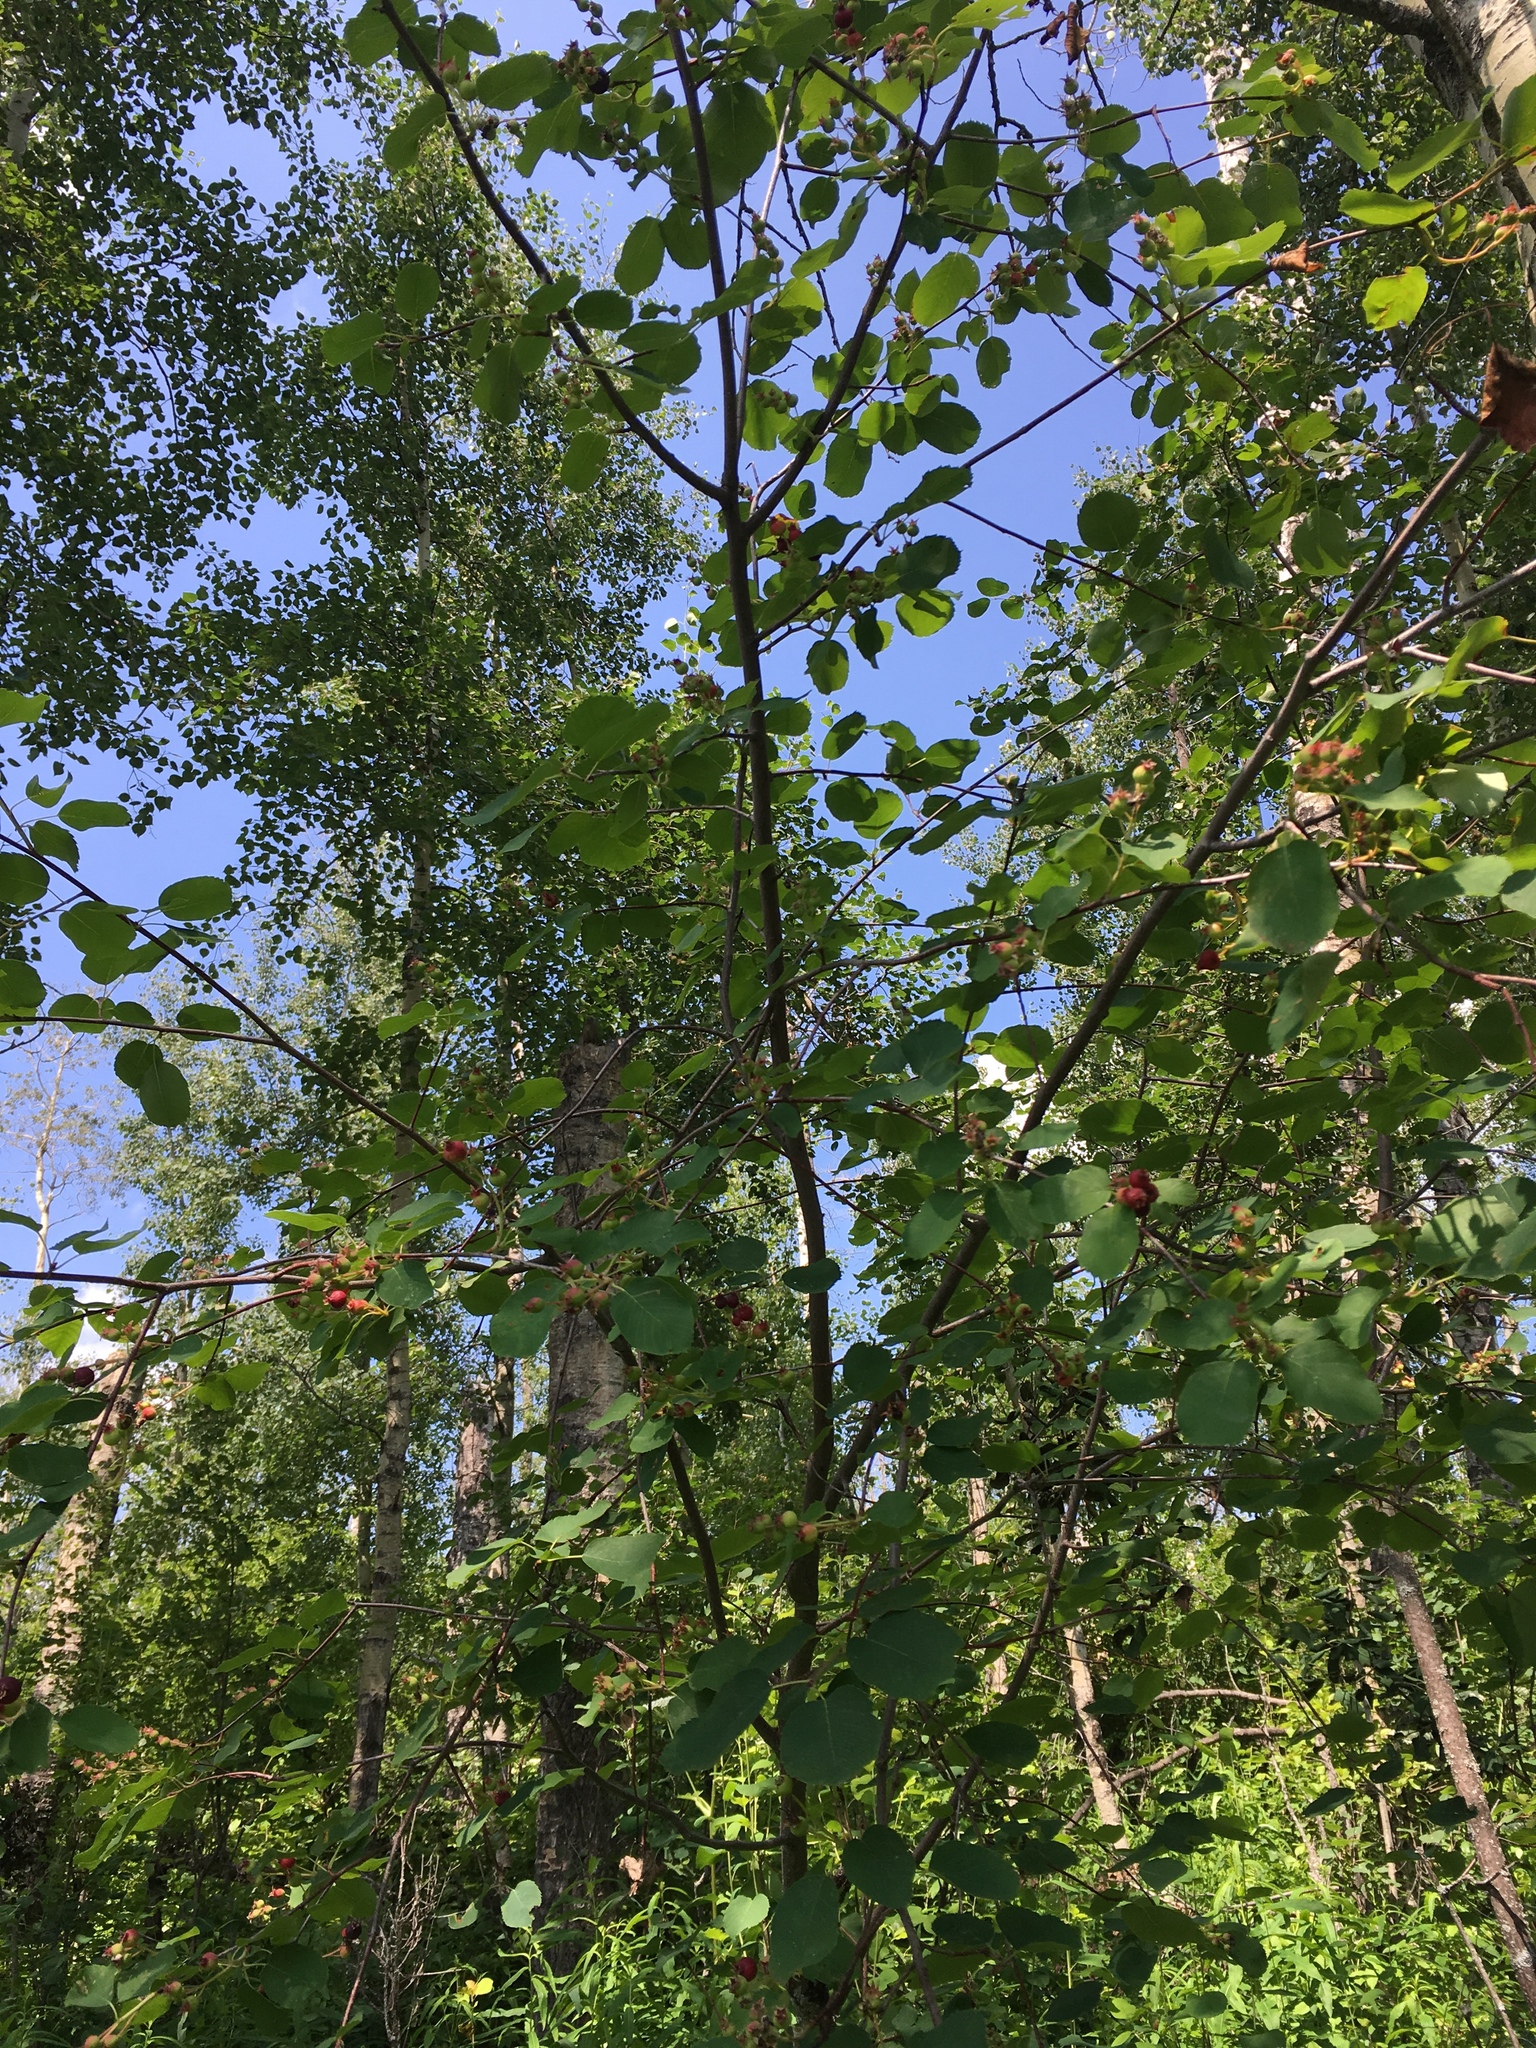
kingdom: Plantae
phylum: Tracheophyta
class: Magnoliopsida
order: Rosales
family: Rosaceae
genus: Amelanchier
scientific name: Amelanchier alnifolia
